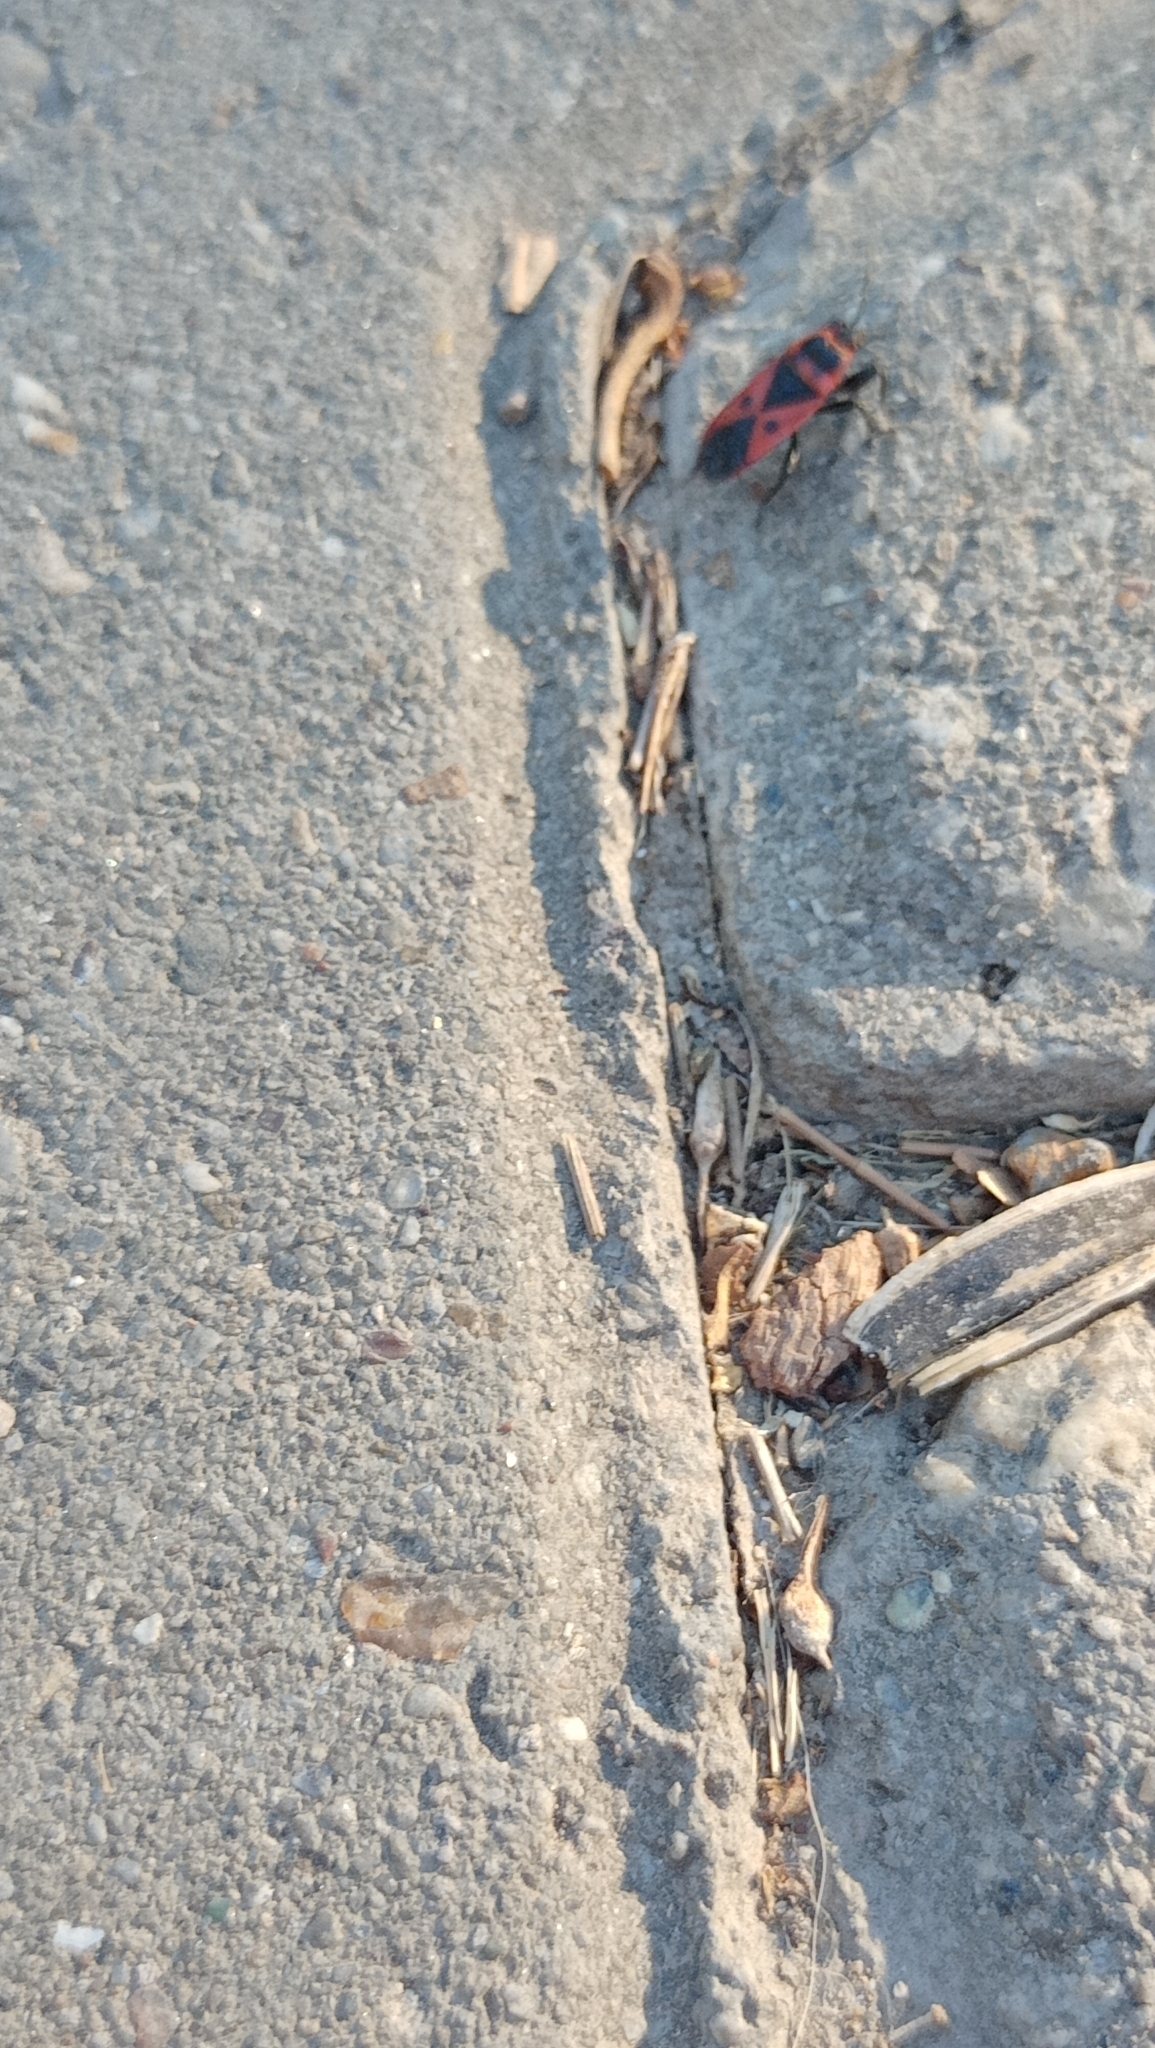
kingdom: Animalia
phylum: Arthropoda
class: Insecta
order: Hemiptera
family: Pyrrhocoridae
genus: Scantius
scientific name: Scantius aegyptius
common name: Red bug
